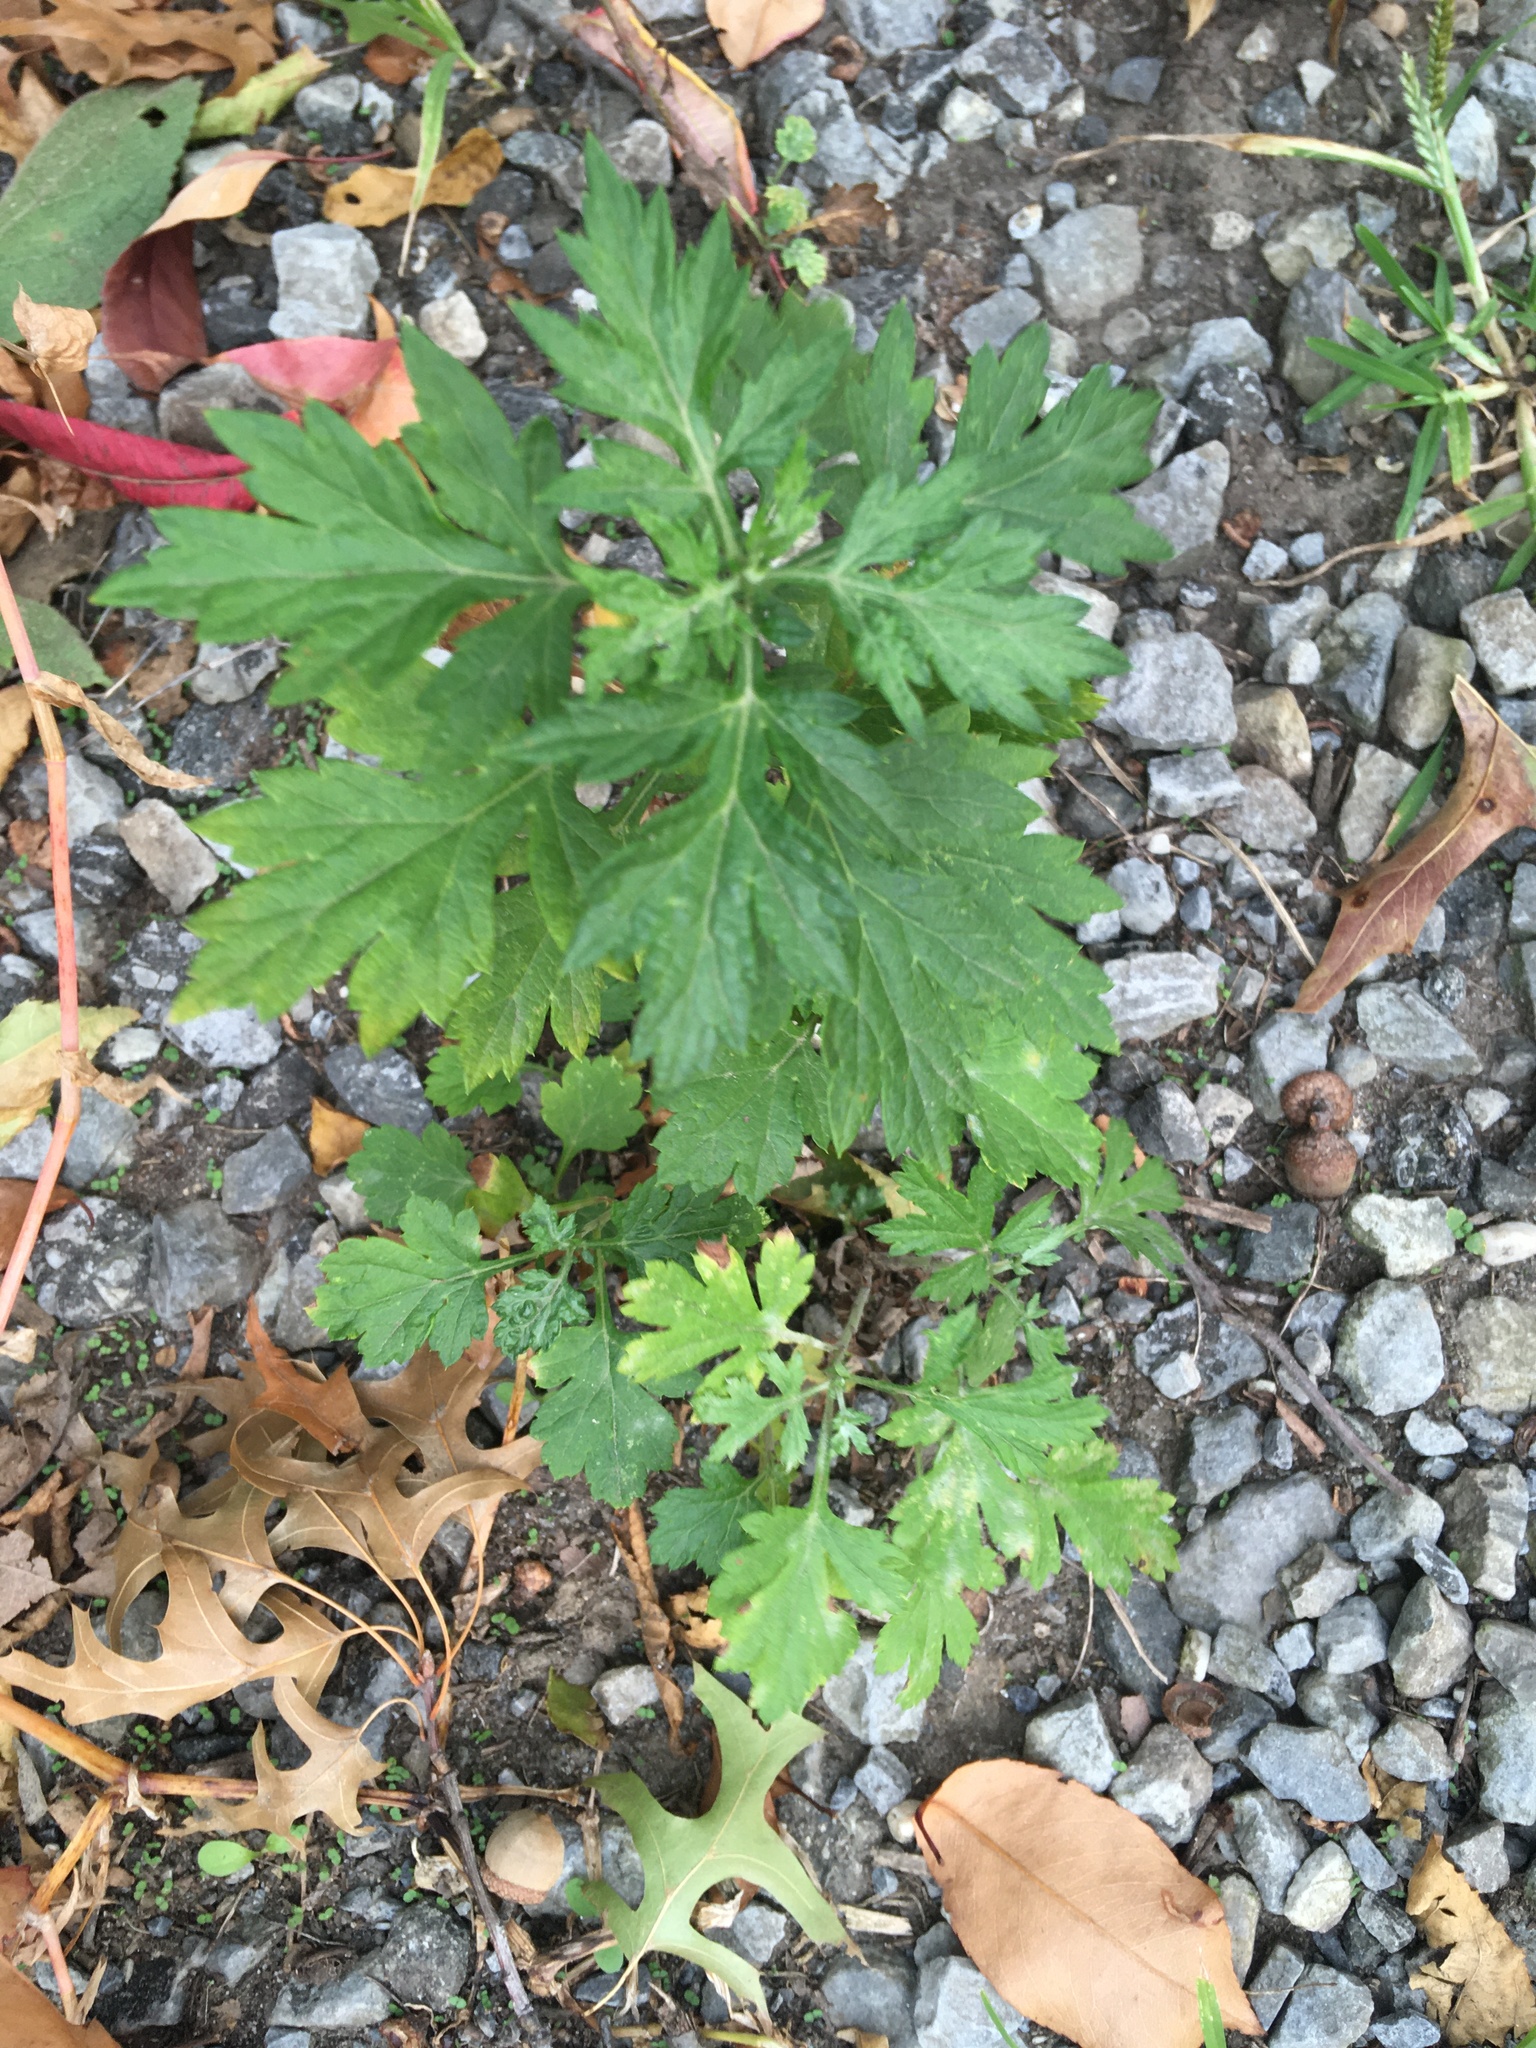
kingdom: Plantae
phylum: Tracheophyta
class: Magnoliopsida
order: Asterales
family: Asteraceae
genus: Artemisia
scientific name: Artemisia vulgaris
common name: Mugwort
